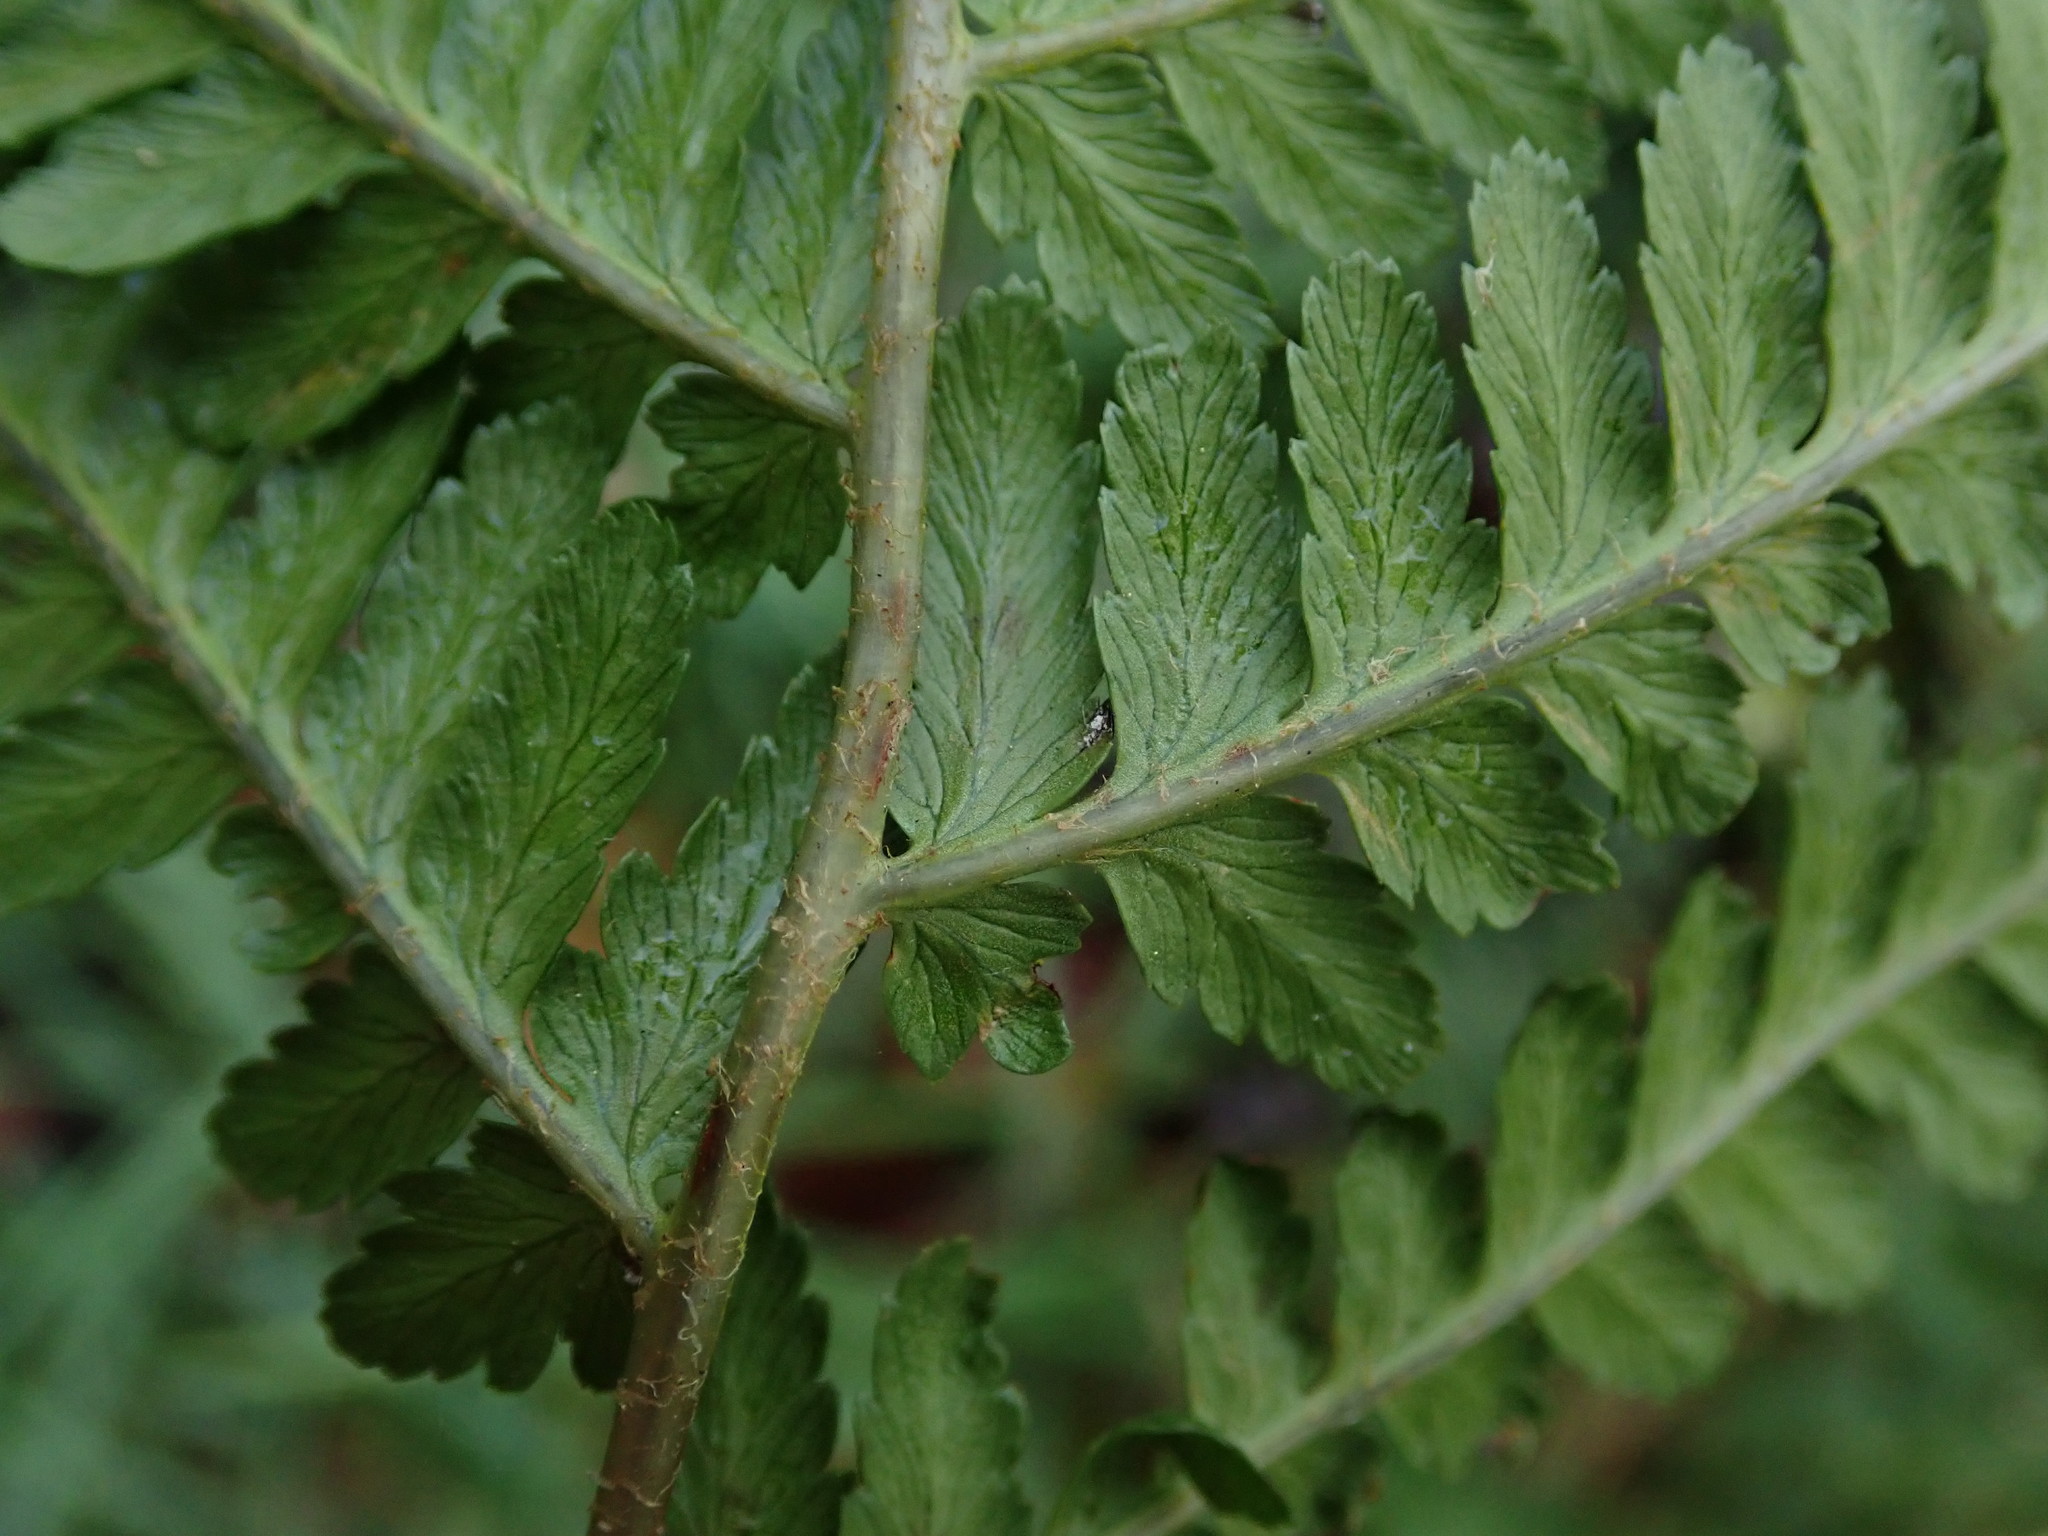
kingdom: Plantae
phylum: Tracheophyta
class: Polypodiopsida
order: Polypodiales
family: Dryopteridaceae
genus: Dryopteris
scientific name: Dryopteris filix-mas
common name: Male fern
